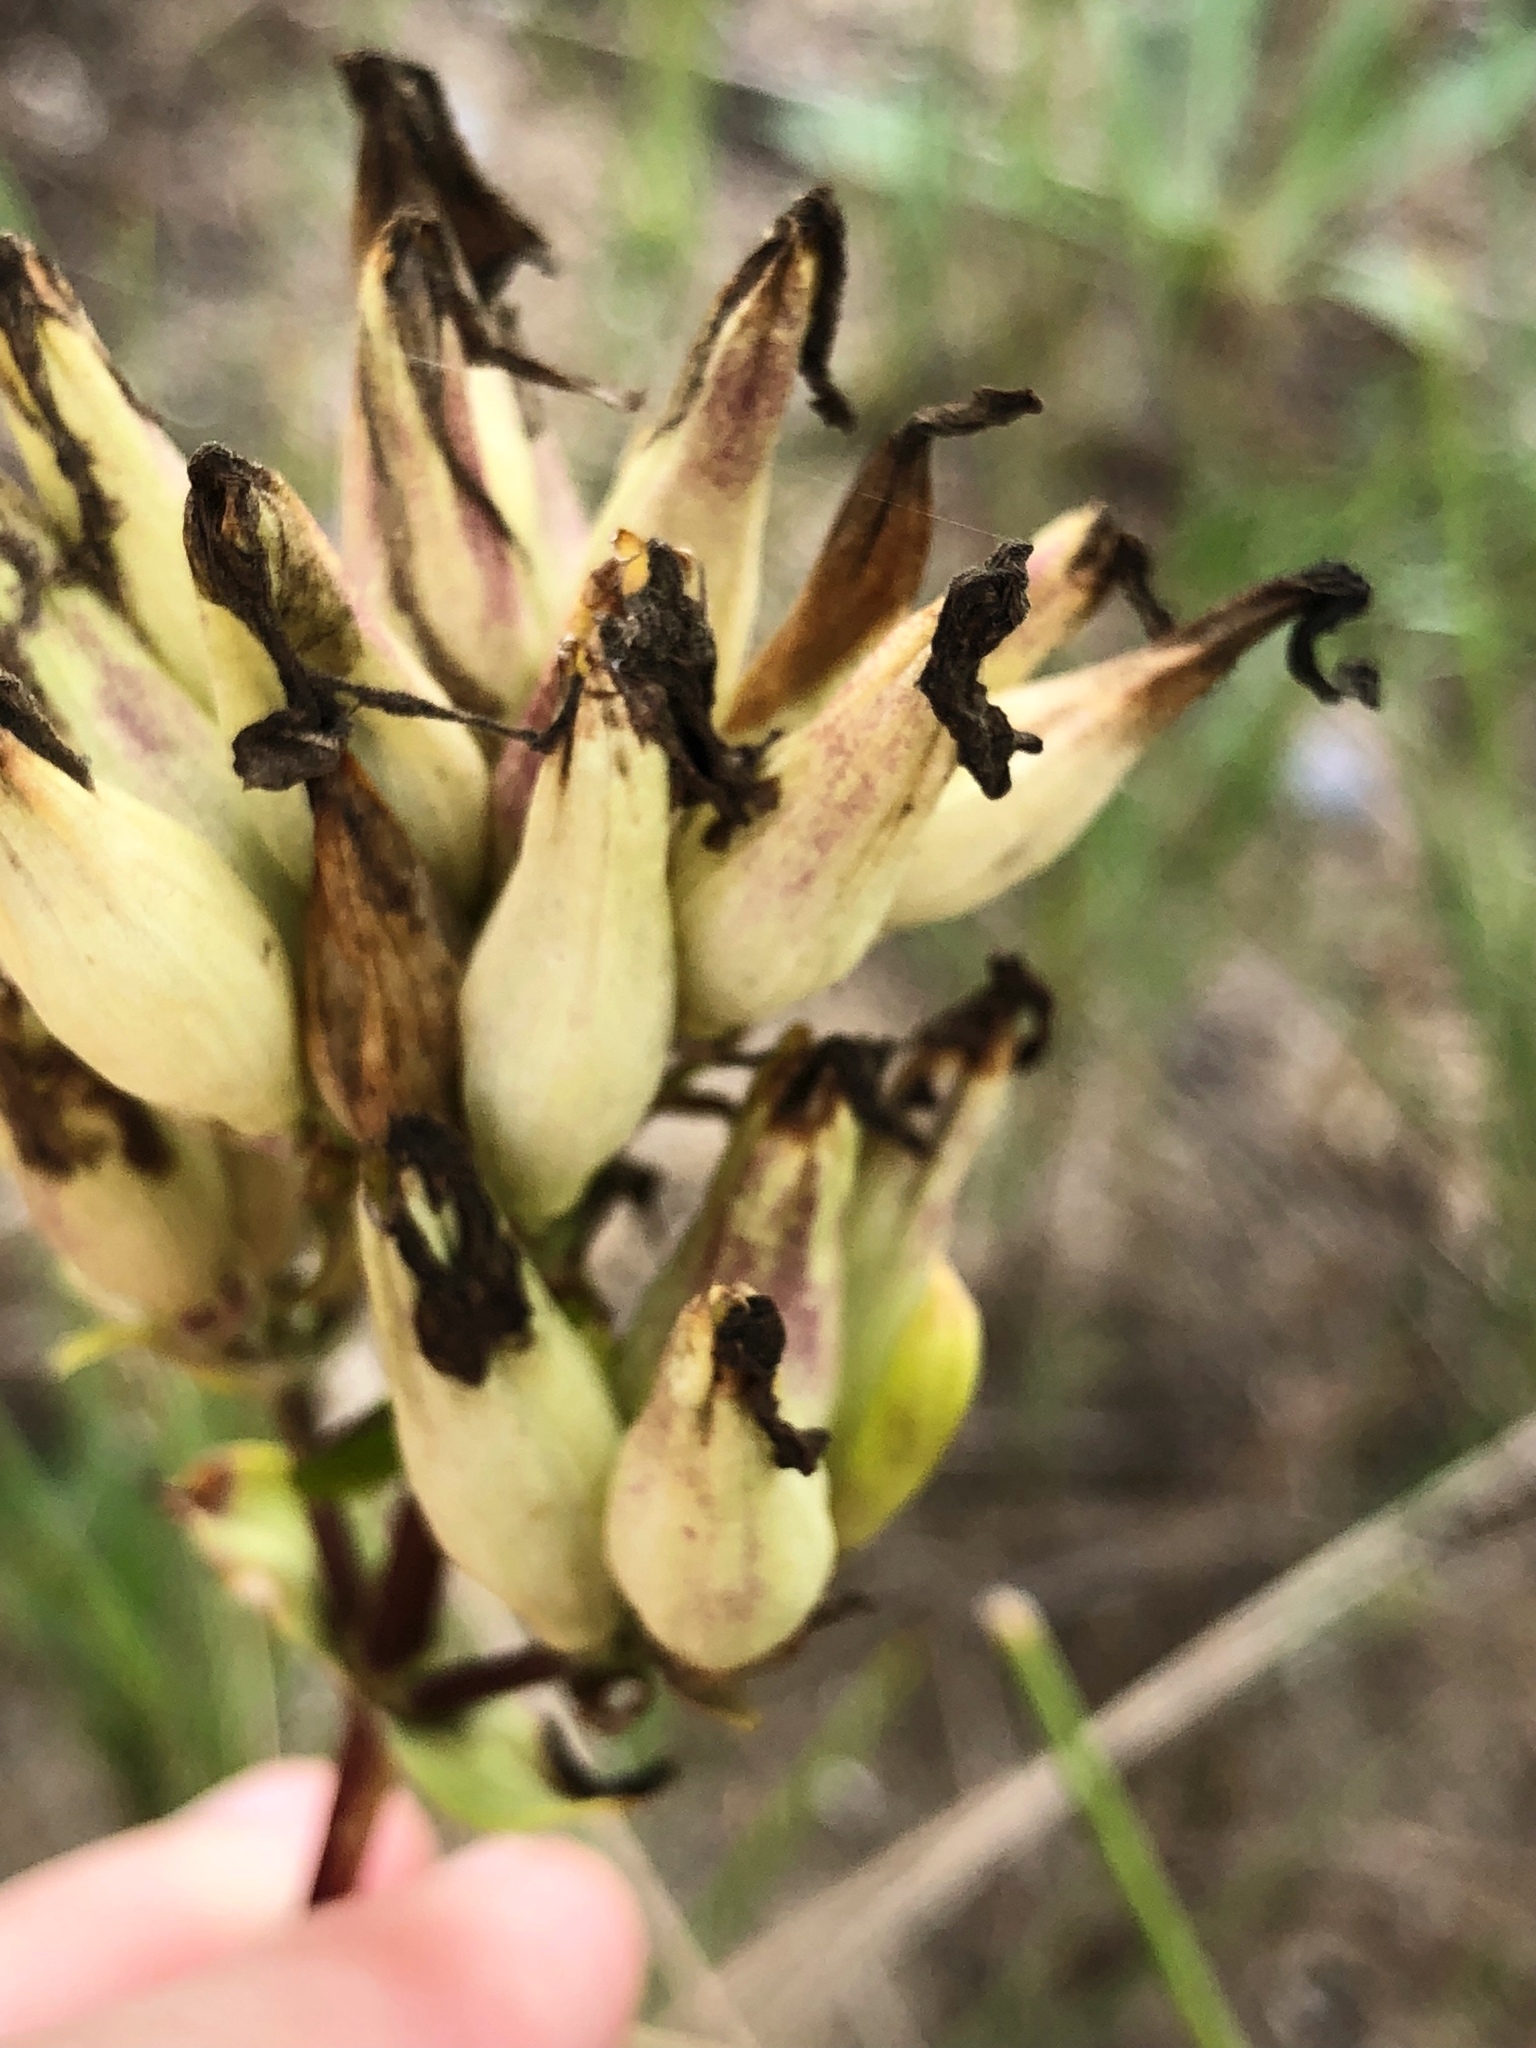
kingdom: Plantae
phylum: Tracheophyta
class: Magnoliopsida
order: Caryophyllales
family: Caryophyllaceae
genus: Saponaria
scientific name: Saponaria officinalis
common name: Soapwort
